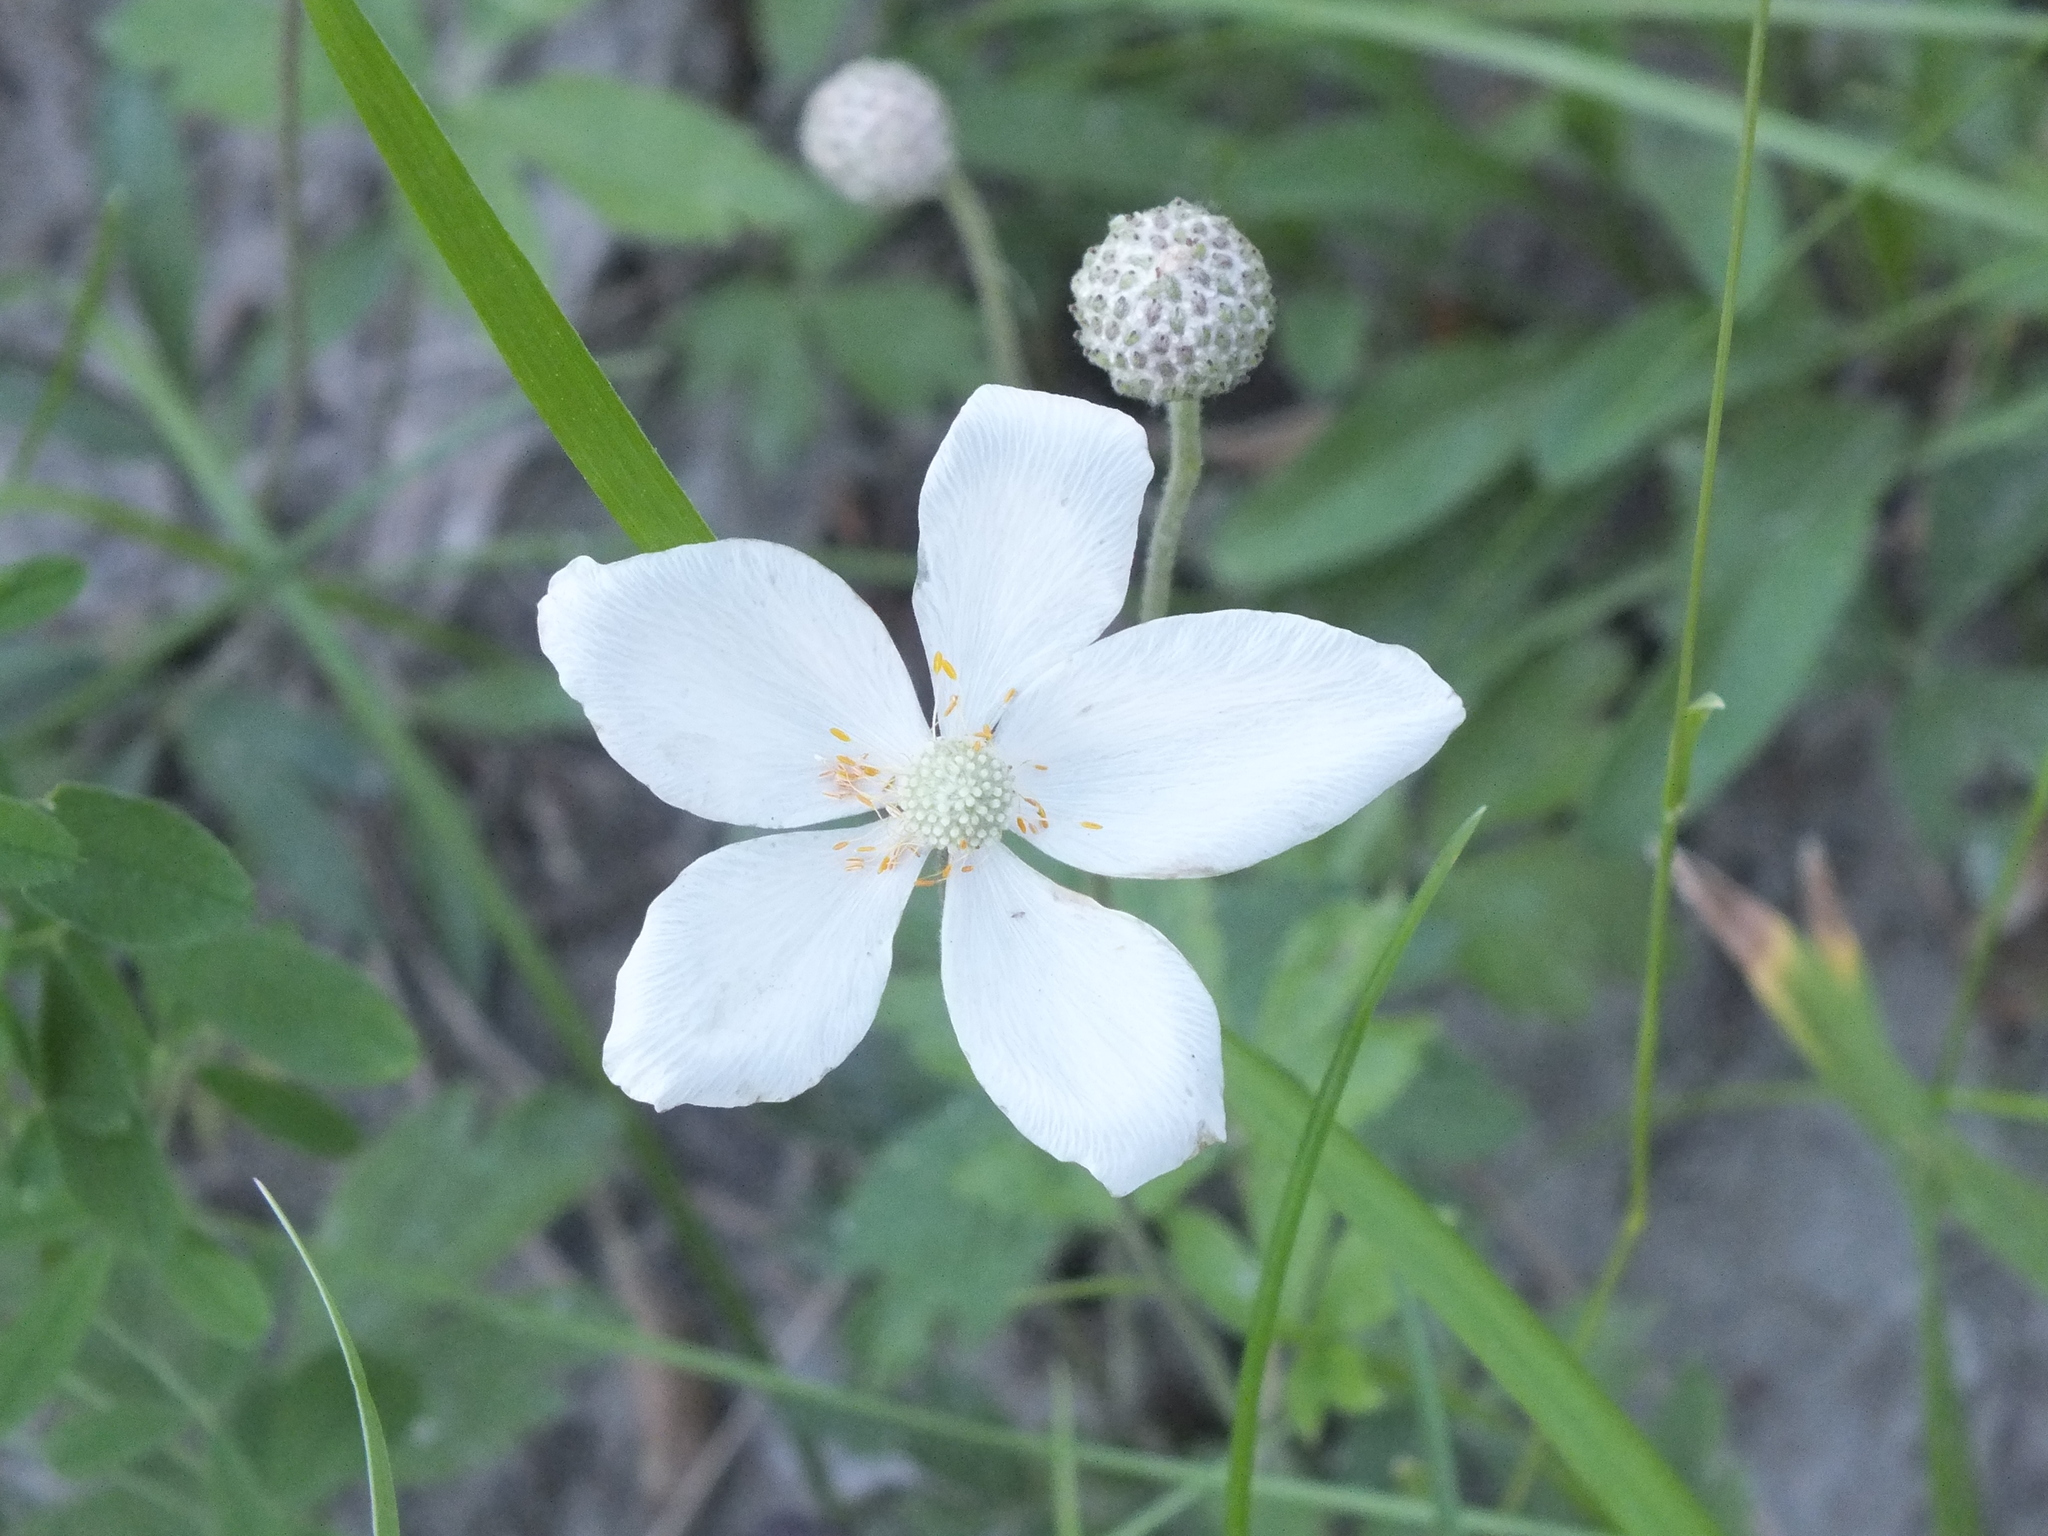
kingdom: Plantae
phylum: Tracheophyta
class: Magnoliopsida
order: Ranunculales
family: Ranunculaceae
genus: Anemone
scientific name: Anemone sylvestris
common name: Snowdrop anemone
